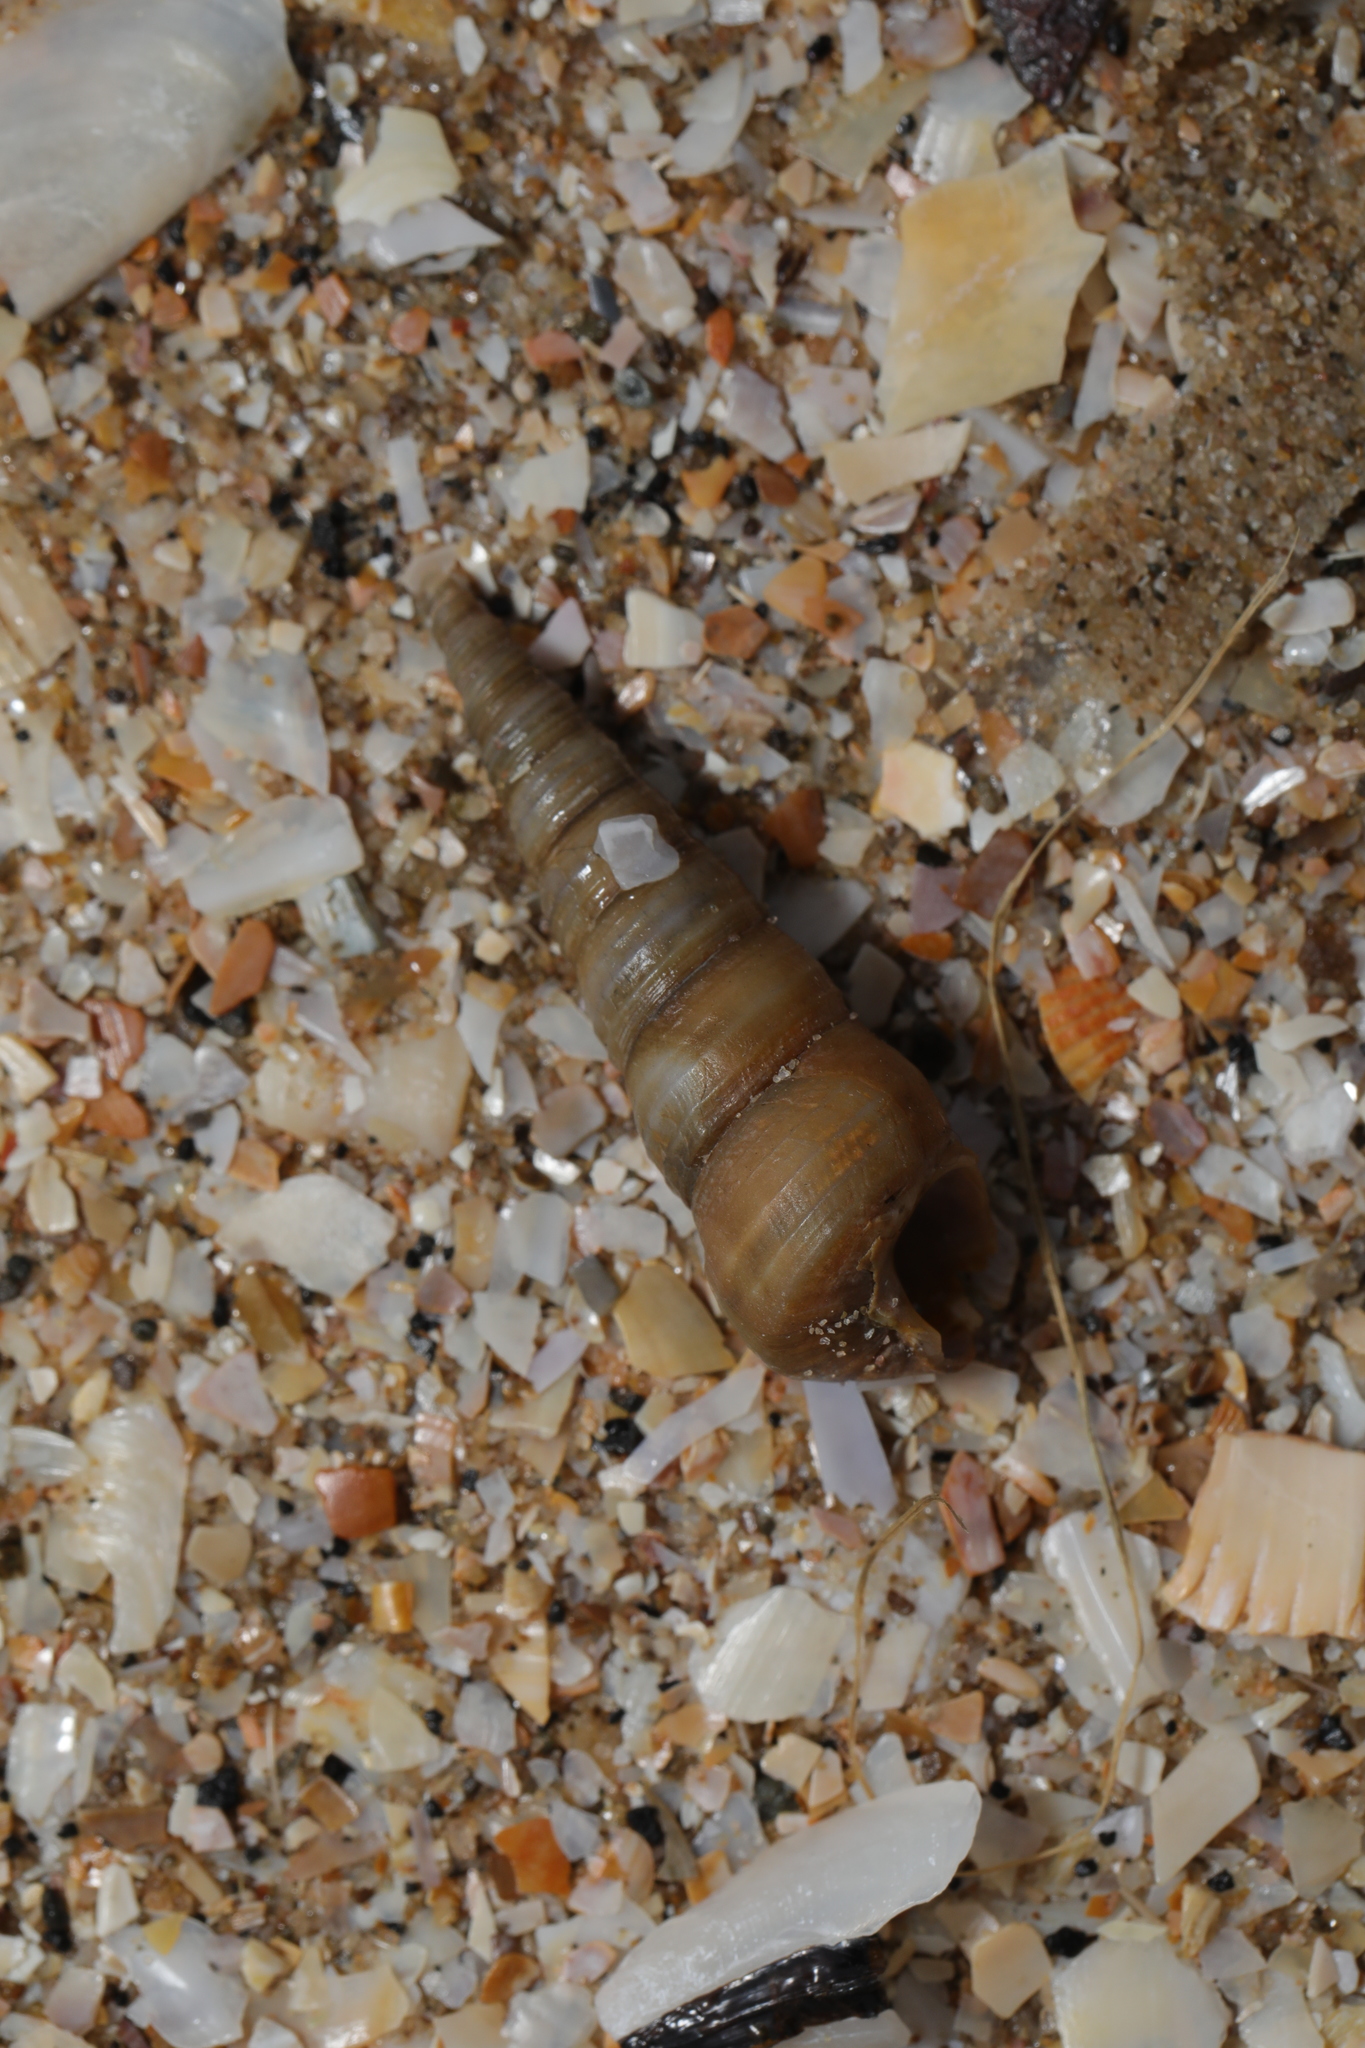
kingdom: Animalia
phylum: Mollusca
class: Gastropoda
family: Turritellidae
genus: Turritellinella
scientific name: Turritellinella tricarinata
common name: Auger shell
